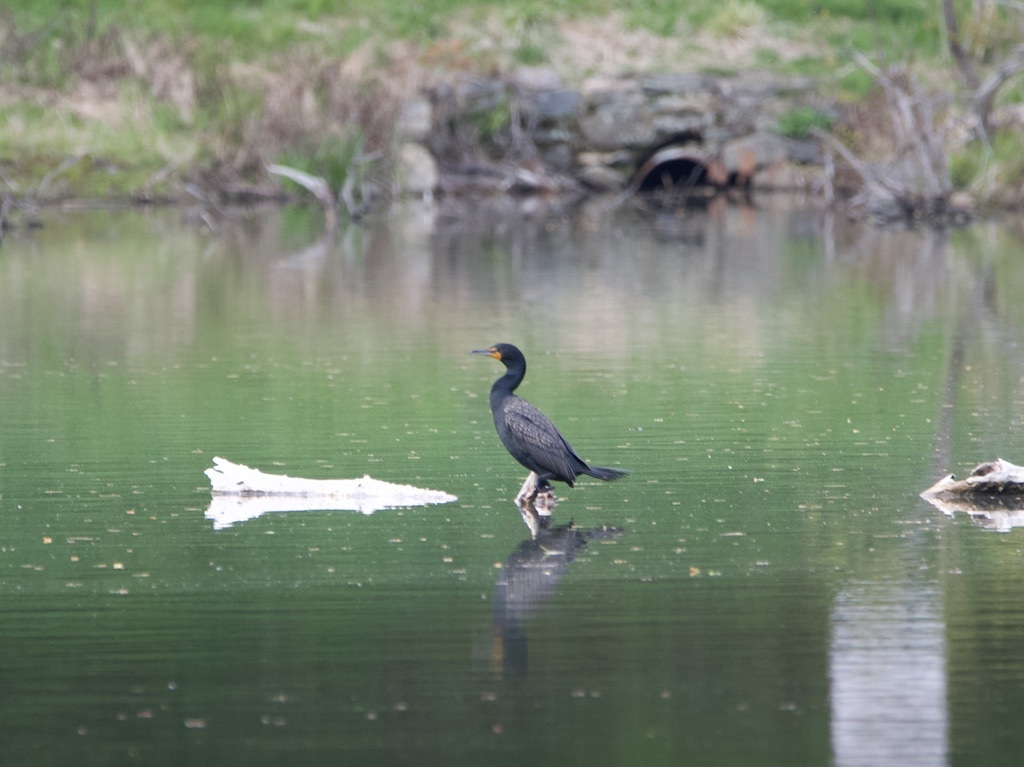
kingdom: Animalia
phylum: Chordata
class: Aves
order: Suliformes
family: Phalacrocoracidae
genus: Phalacrocorax
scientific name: Phalacrocorax auritus
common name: Double-crested cormorant
